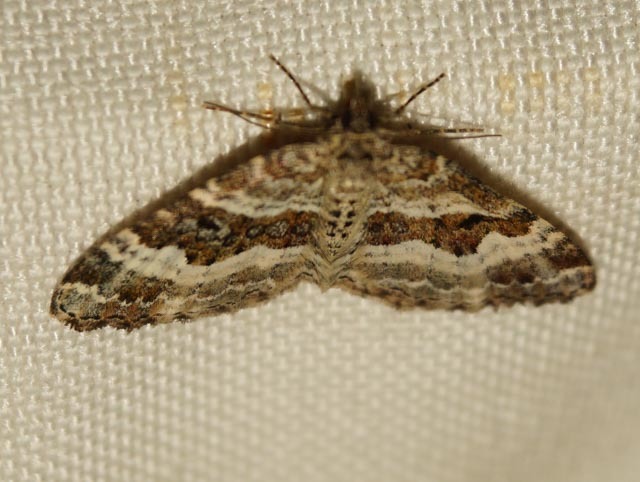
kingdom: Animalia
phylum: Arthropoda
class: Insecta
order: Lepidoptera
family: Geometridae
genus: Epirrhoe
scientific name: Epirrhoe alternata
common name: Common carpet
